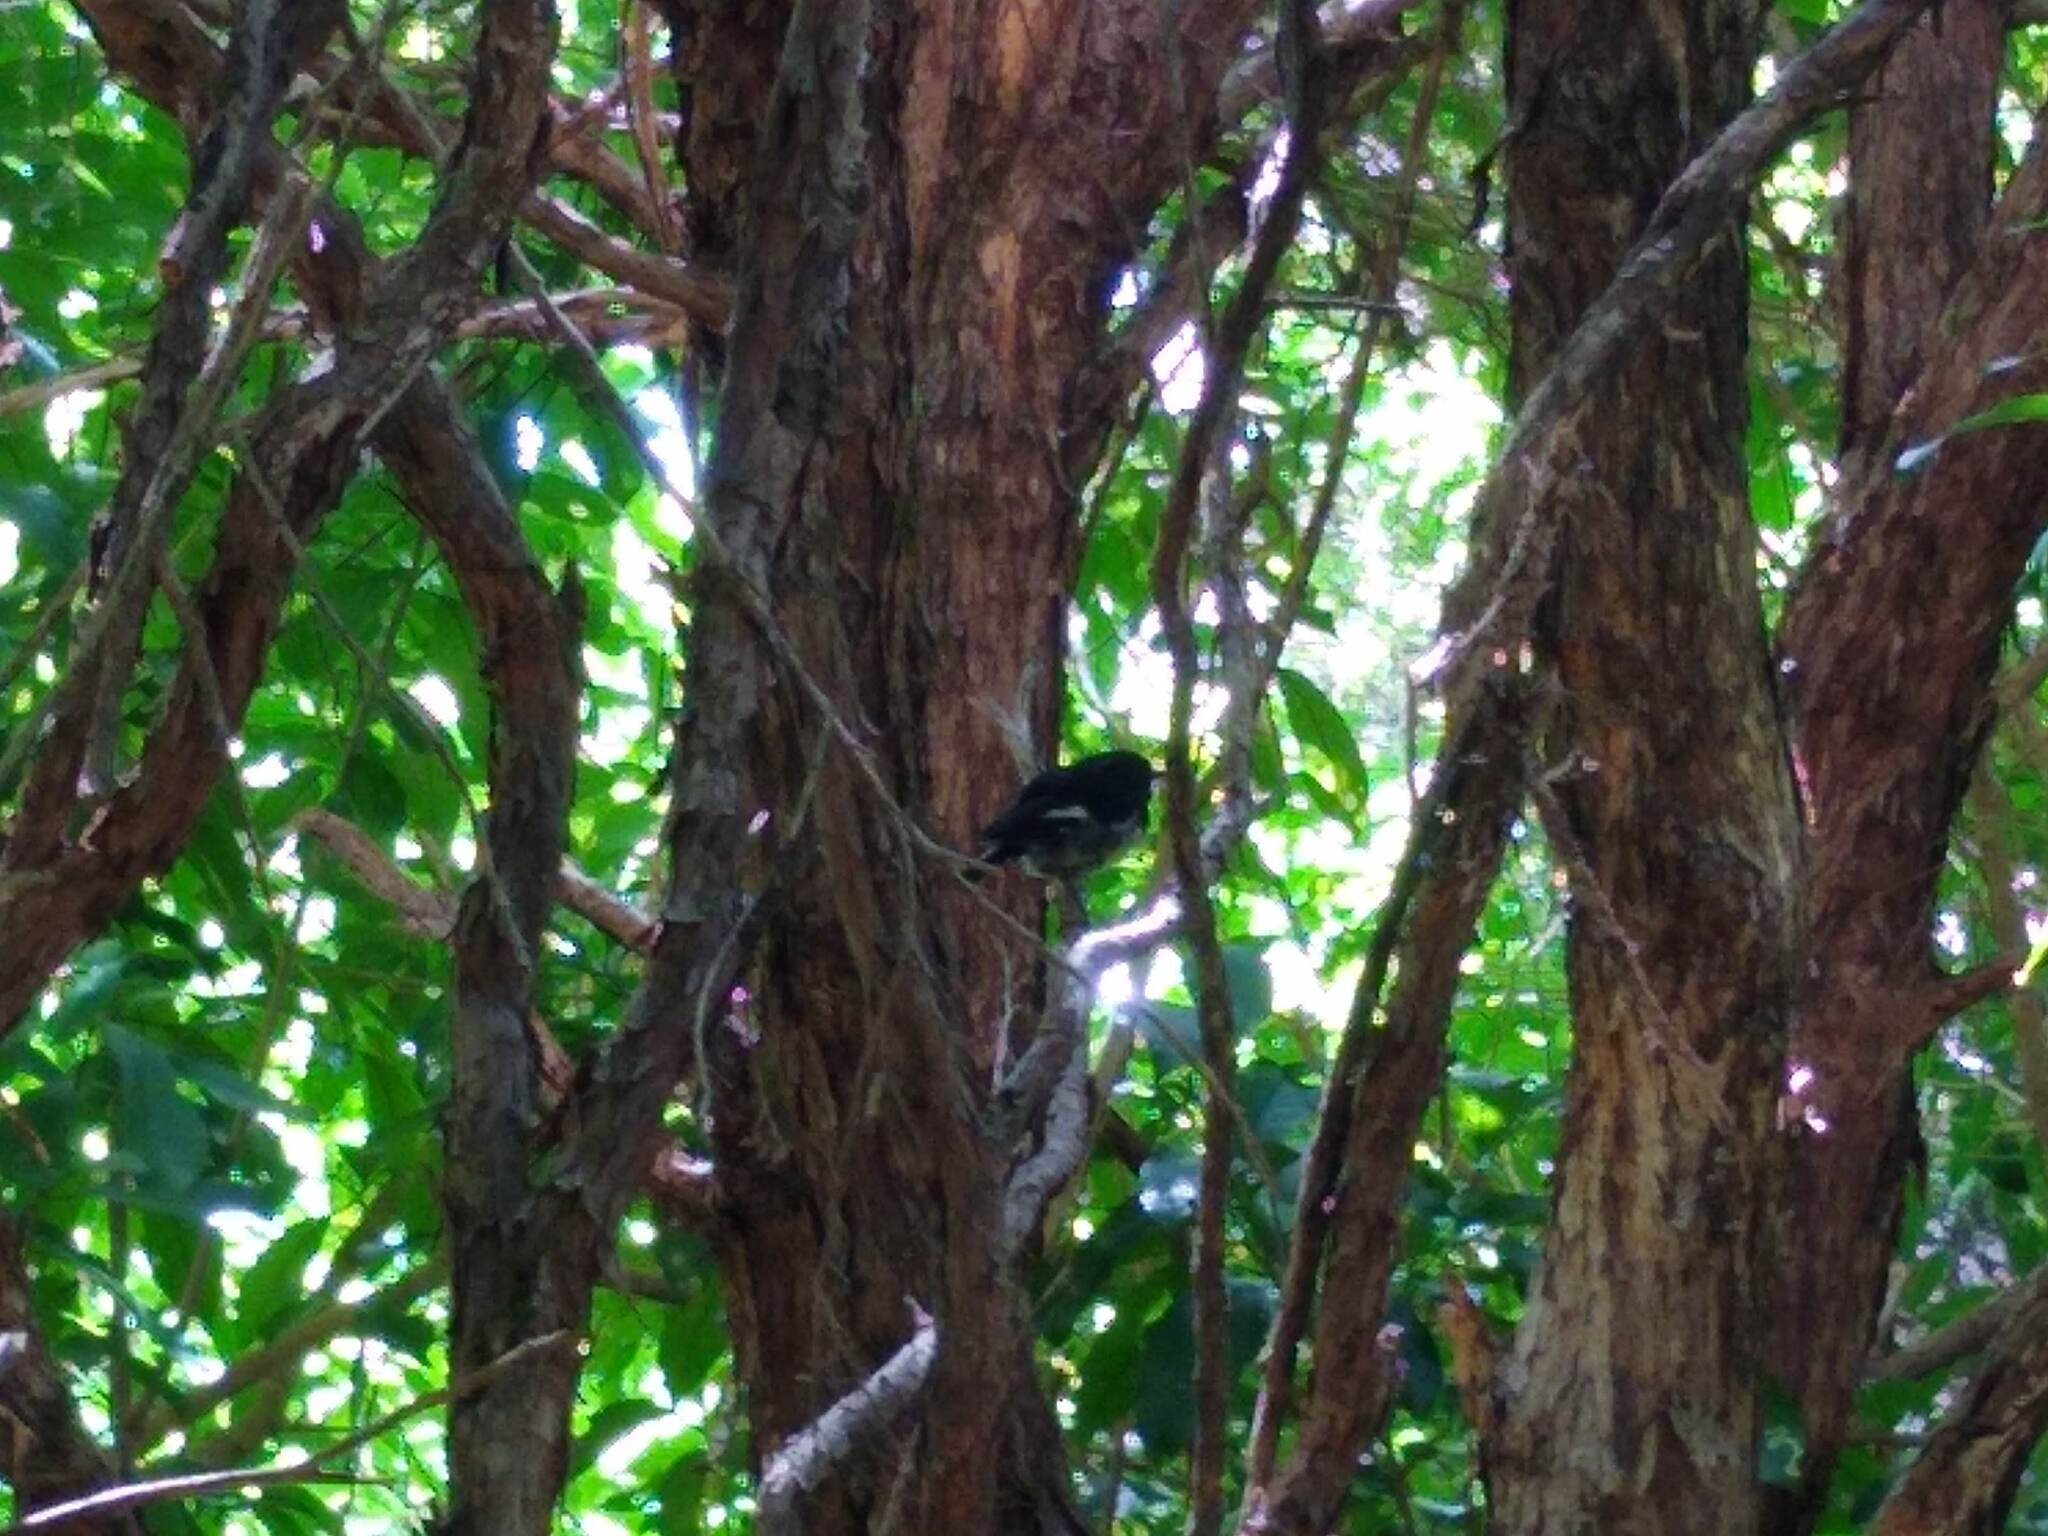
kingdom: Animalia
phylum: Chordata
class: Aves
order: Passeriformes
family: Petroicidae
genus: Petroica
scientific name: Petroica macrocephala
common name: Tomtit
